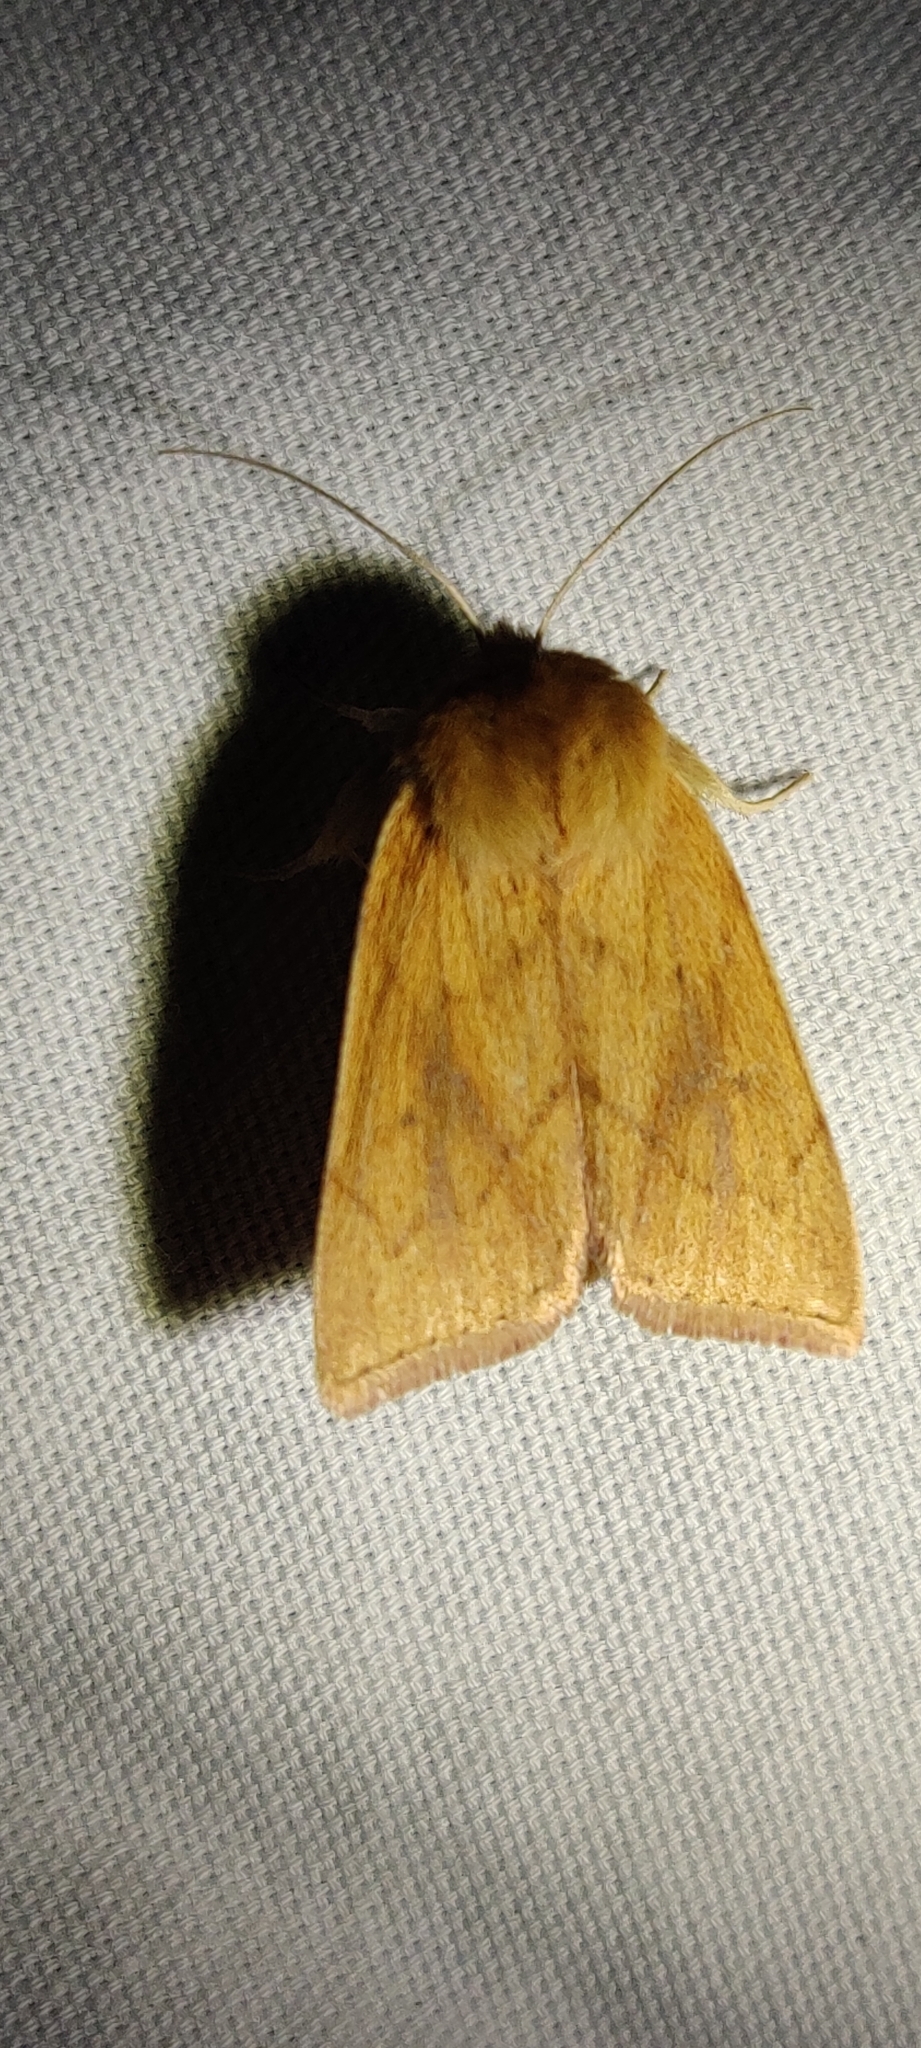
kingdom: Animalia
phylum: Arthropoda
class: Insecta
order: Lepidoptera
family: Noctuidae
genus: Zosteropoda
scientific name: Zosteropoda hirtipes
